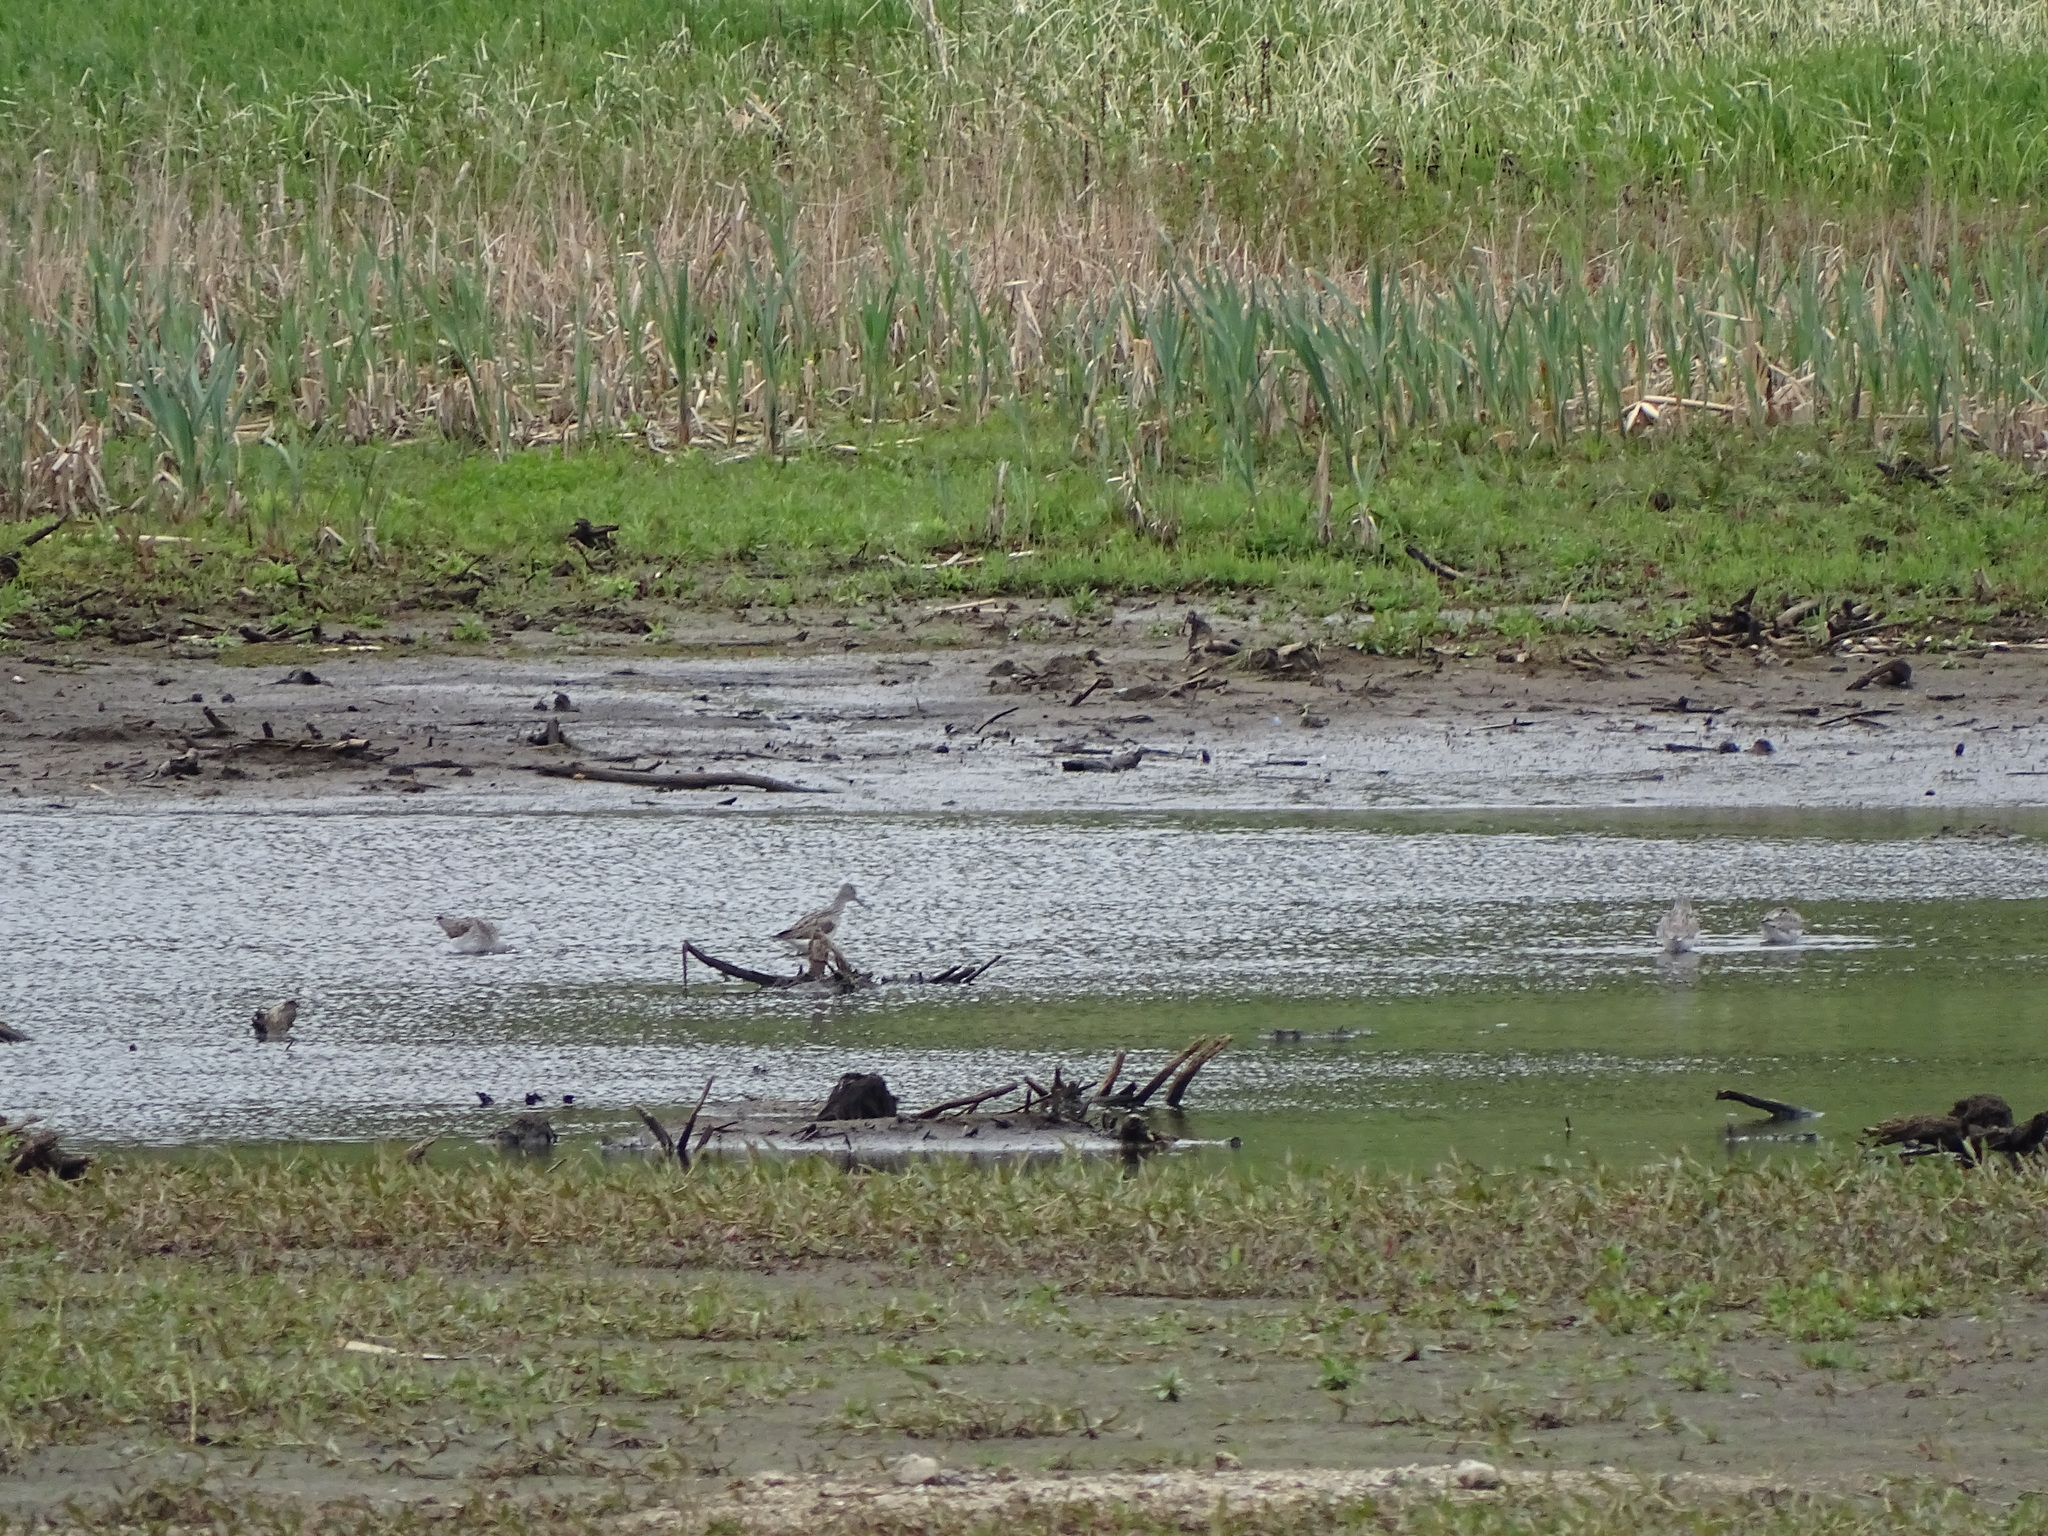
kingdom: Animalia
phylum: Chordata
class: Aves
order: Charadriiformes
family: Scolopacidae
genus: Tringa
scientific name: Tringa nebularia
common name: Common greenshank
